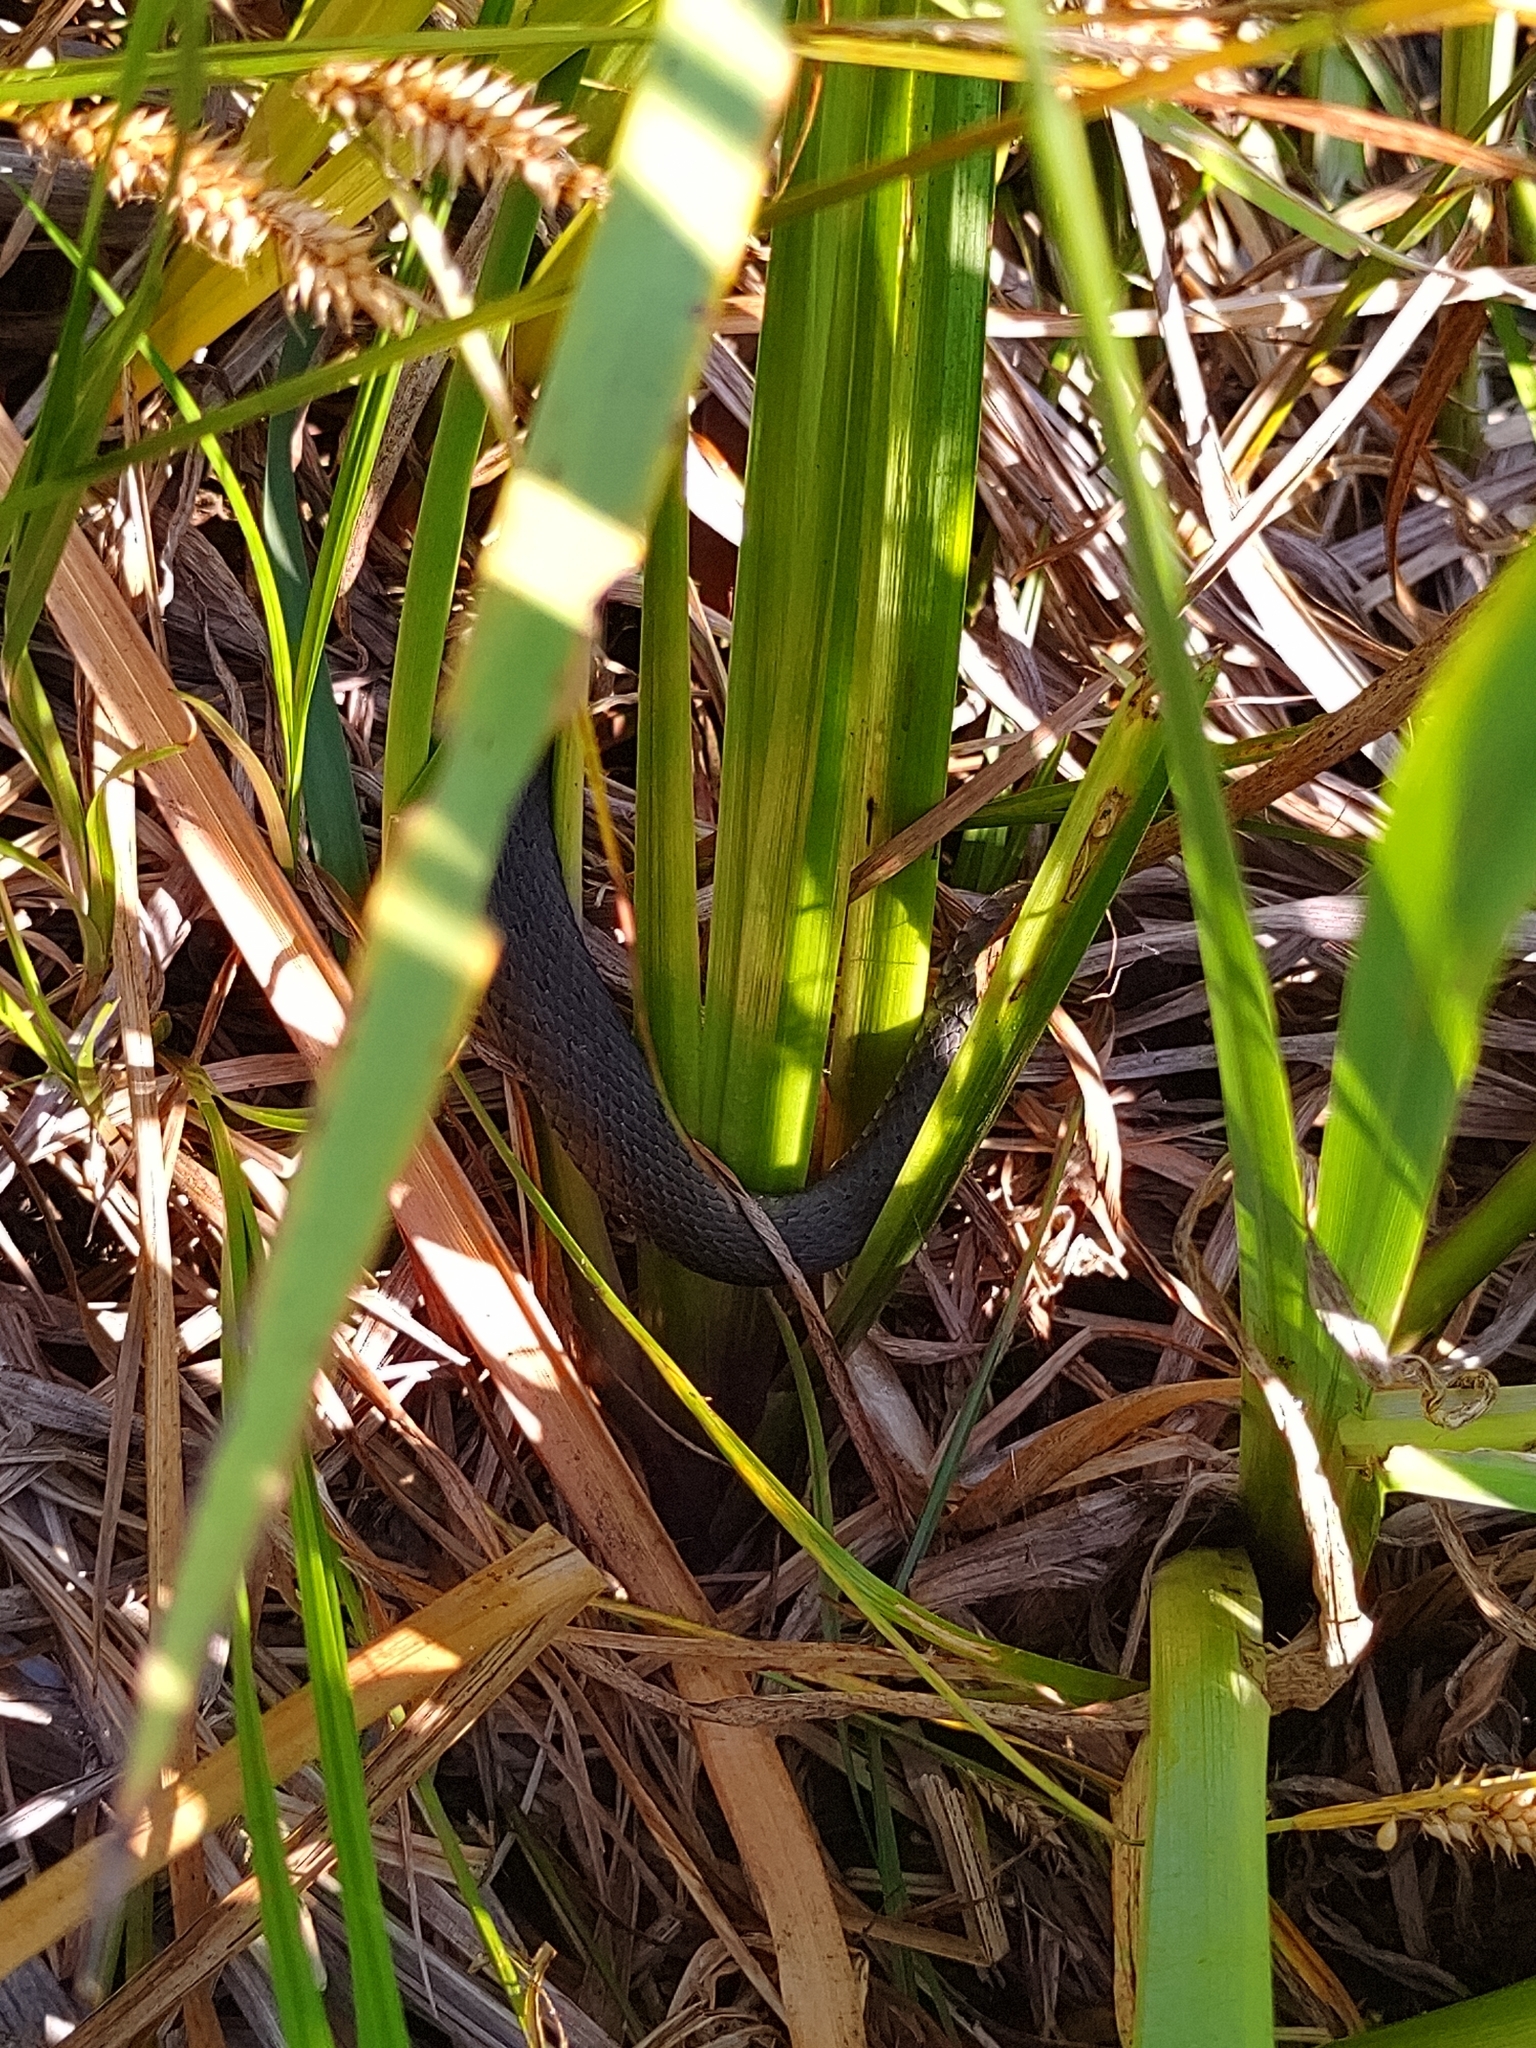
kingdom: Animalia
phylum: Chordata
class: Squamata
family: Colubridae
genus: Natrix
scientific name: Natrix natrix
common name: Grass snake
